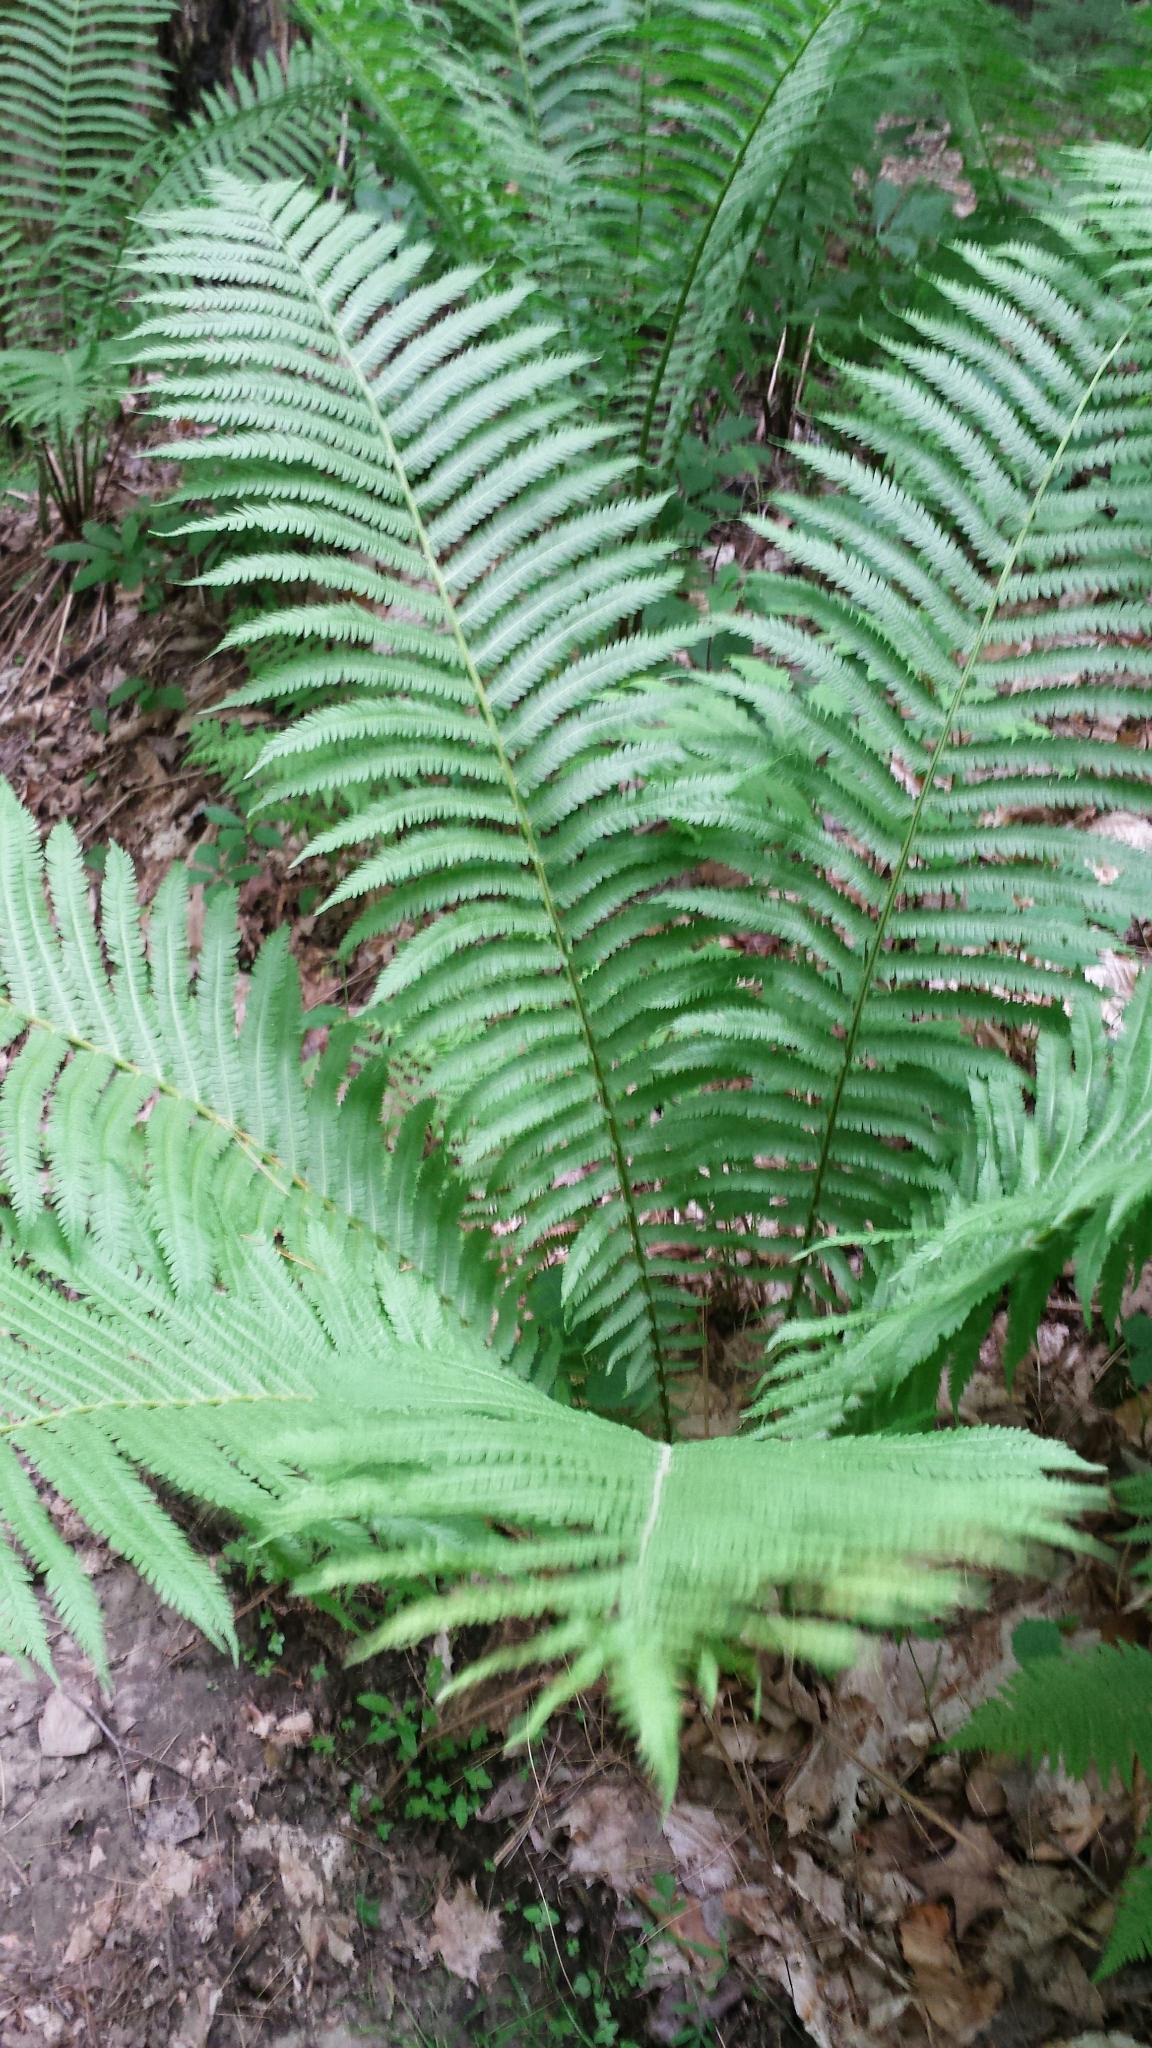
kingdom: Plantae
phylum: Tracheophyta
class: Polypodiopsida
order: Polypodiales
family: Onocleaceae
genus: Matteuccia
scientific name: Matteuccia struthiopteris
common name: Ostrich fern
